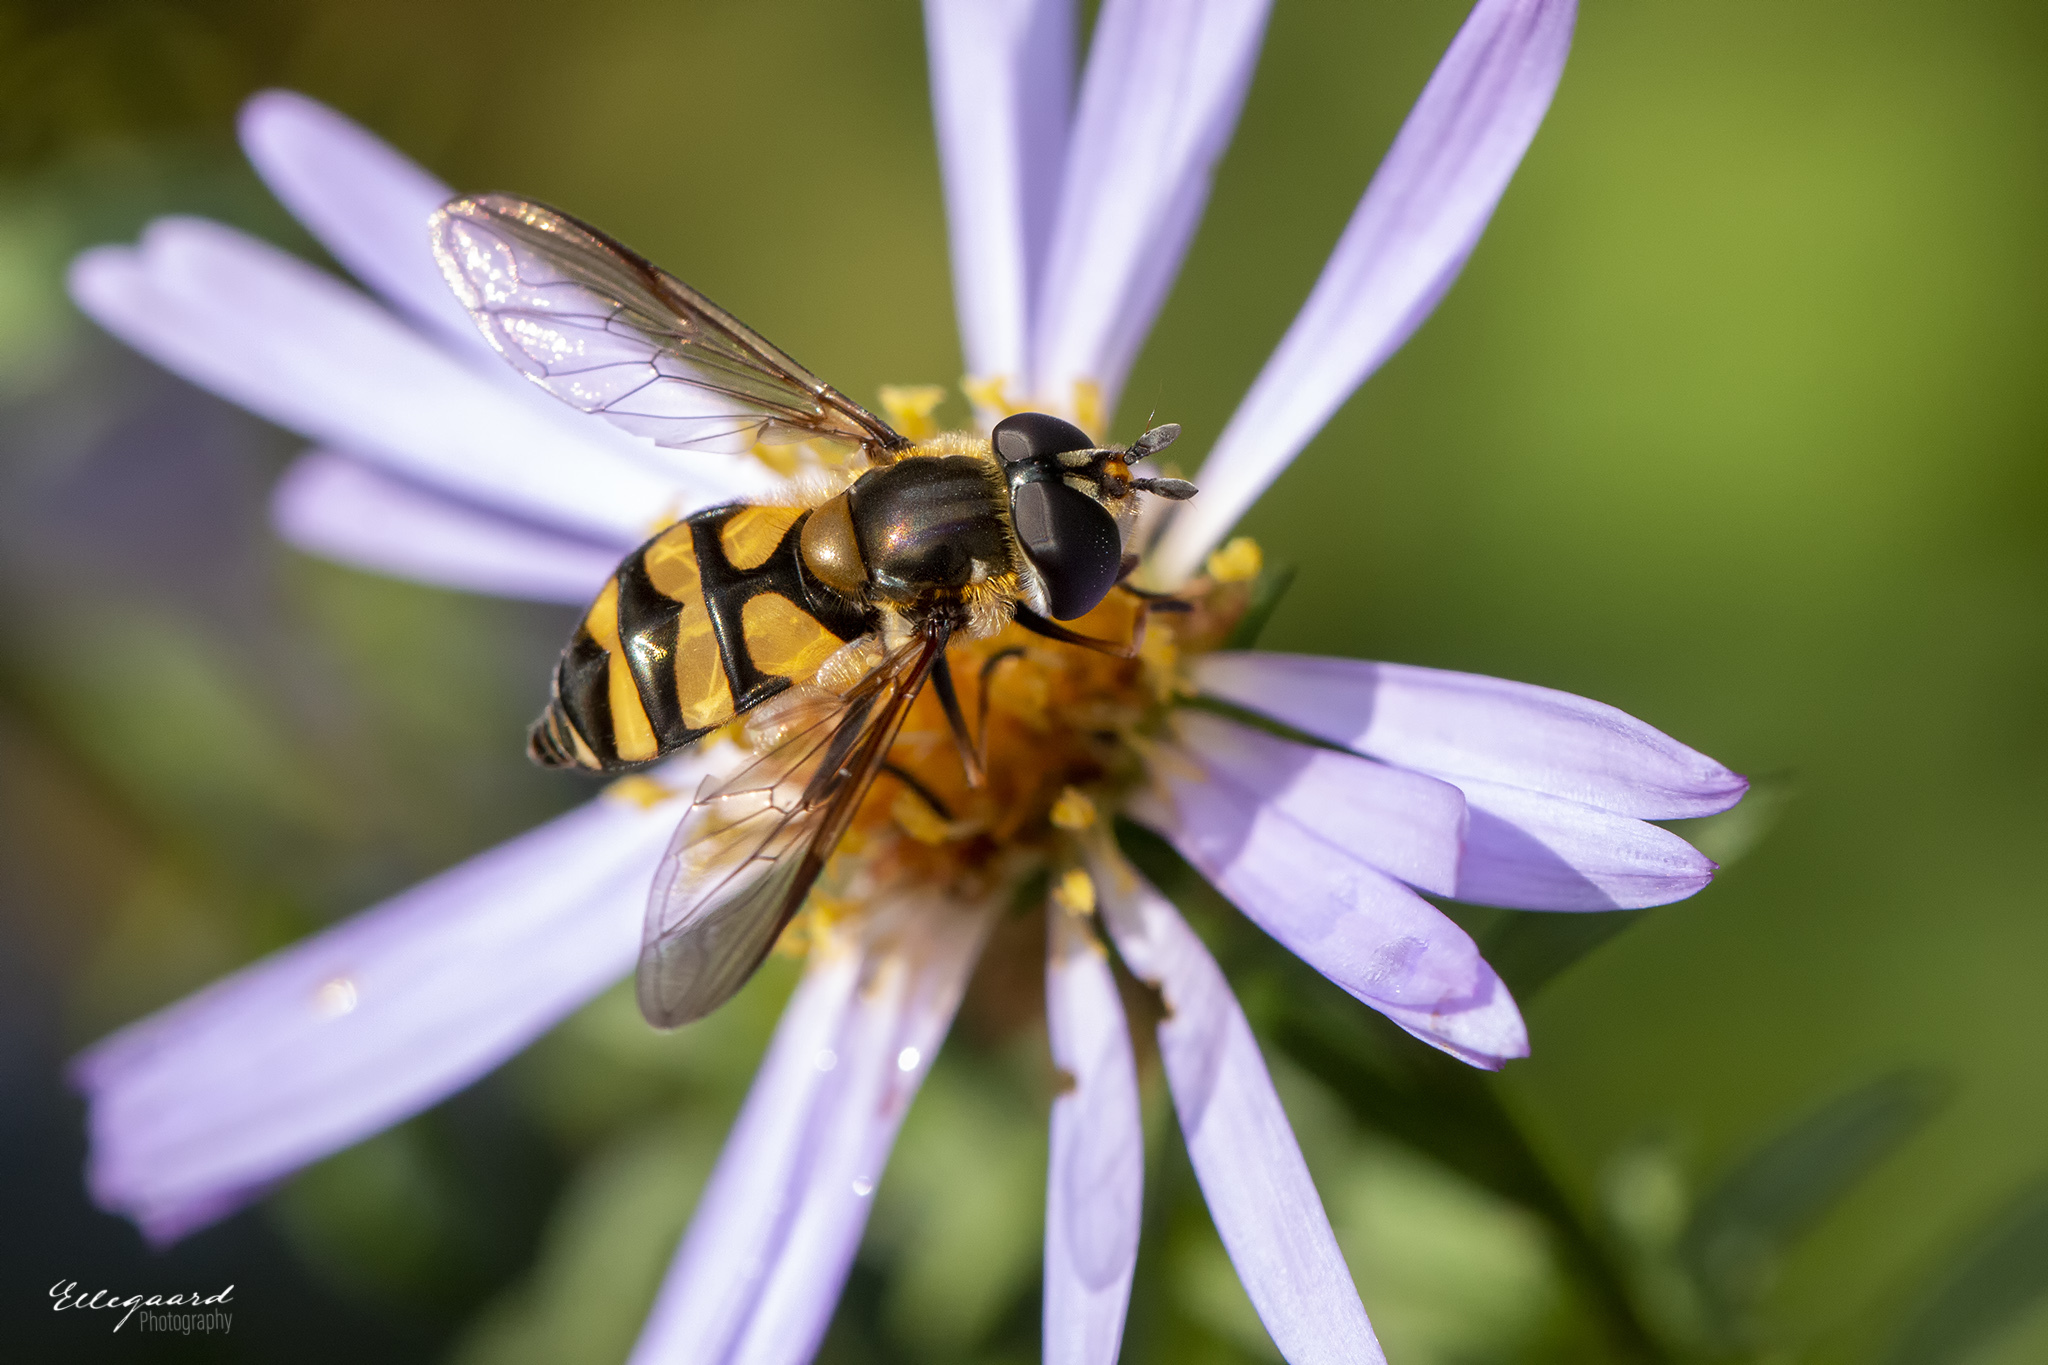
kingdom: Animalia
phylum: Arthropoda
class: Insecta
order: Diptera
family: Syrphidae
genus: Didea
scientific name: Didea fasciata
